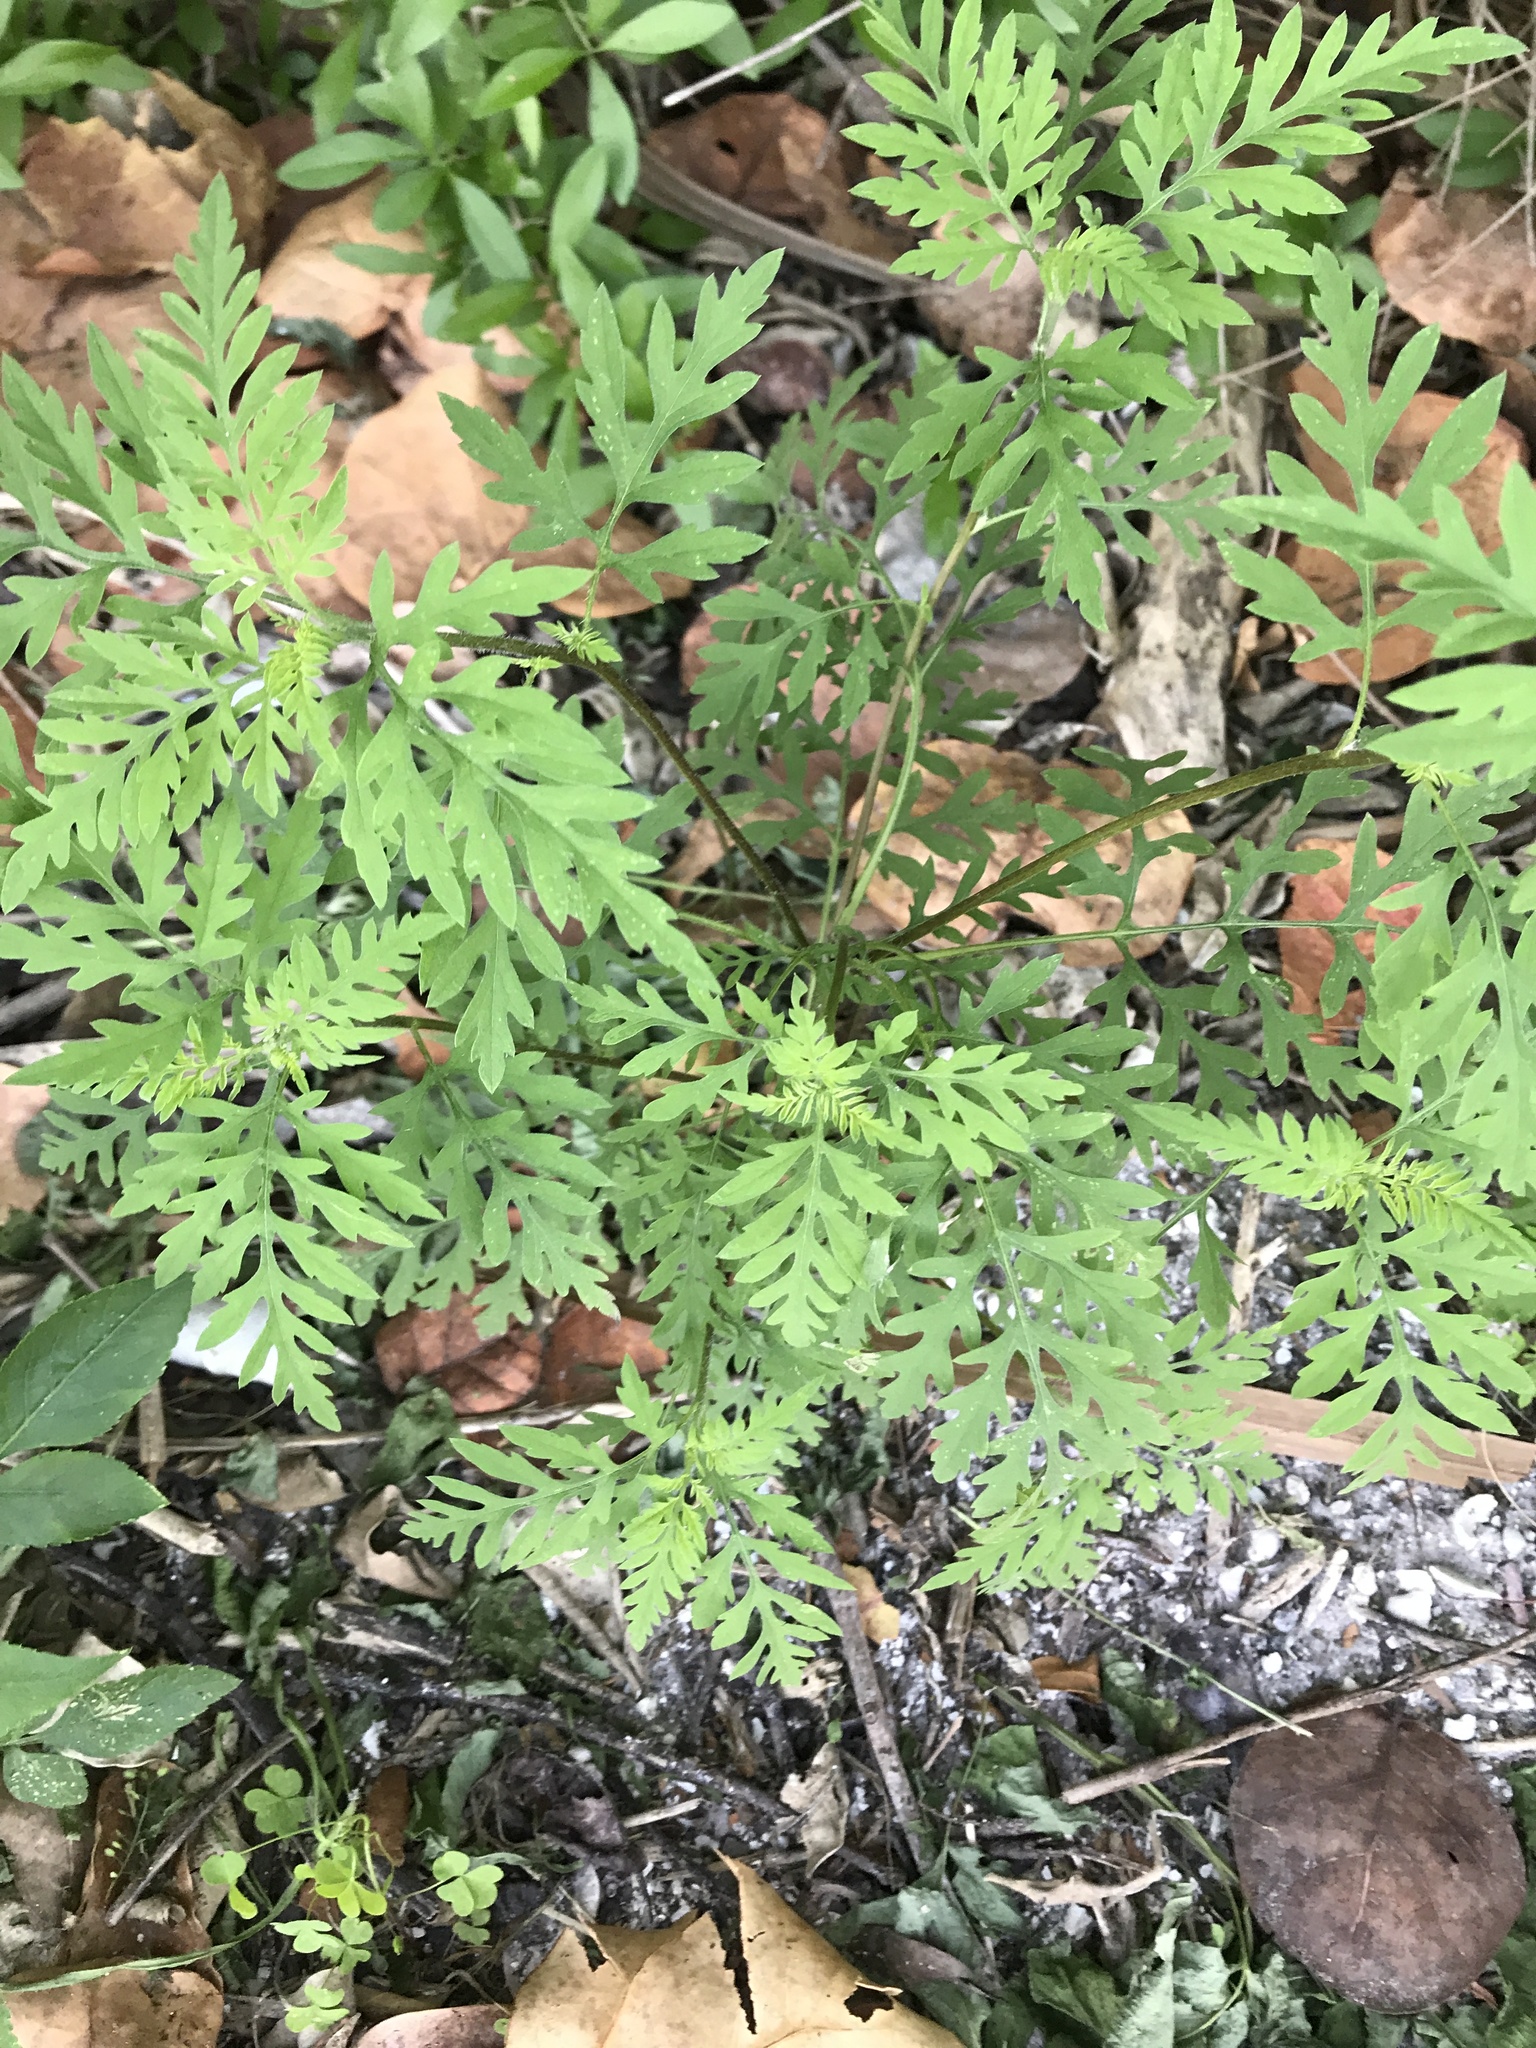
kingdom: Plantae
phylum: Tracheophyta
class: Magnoliopsida
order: Asterales
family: Asteraceae
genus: Ambrosia
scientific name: Ambrosia artemisiifolia
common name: Annual ragweed
